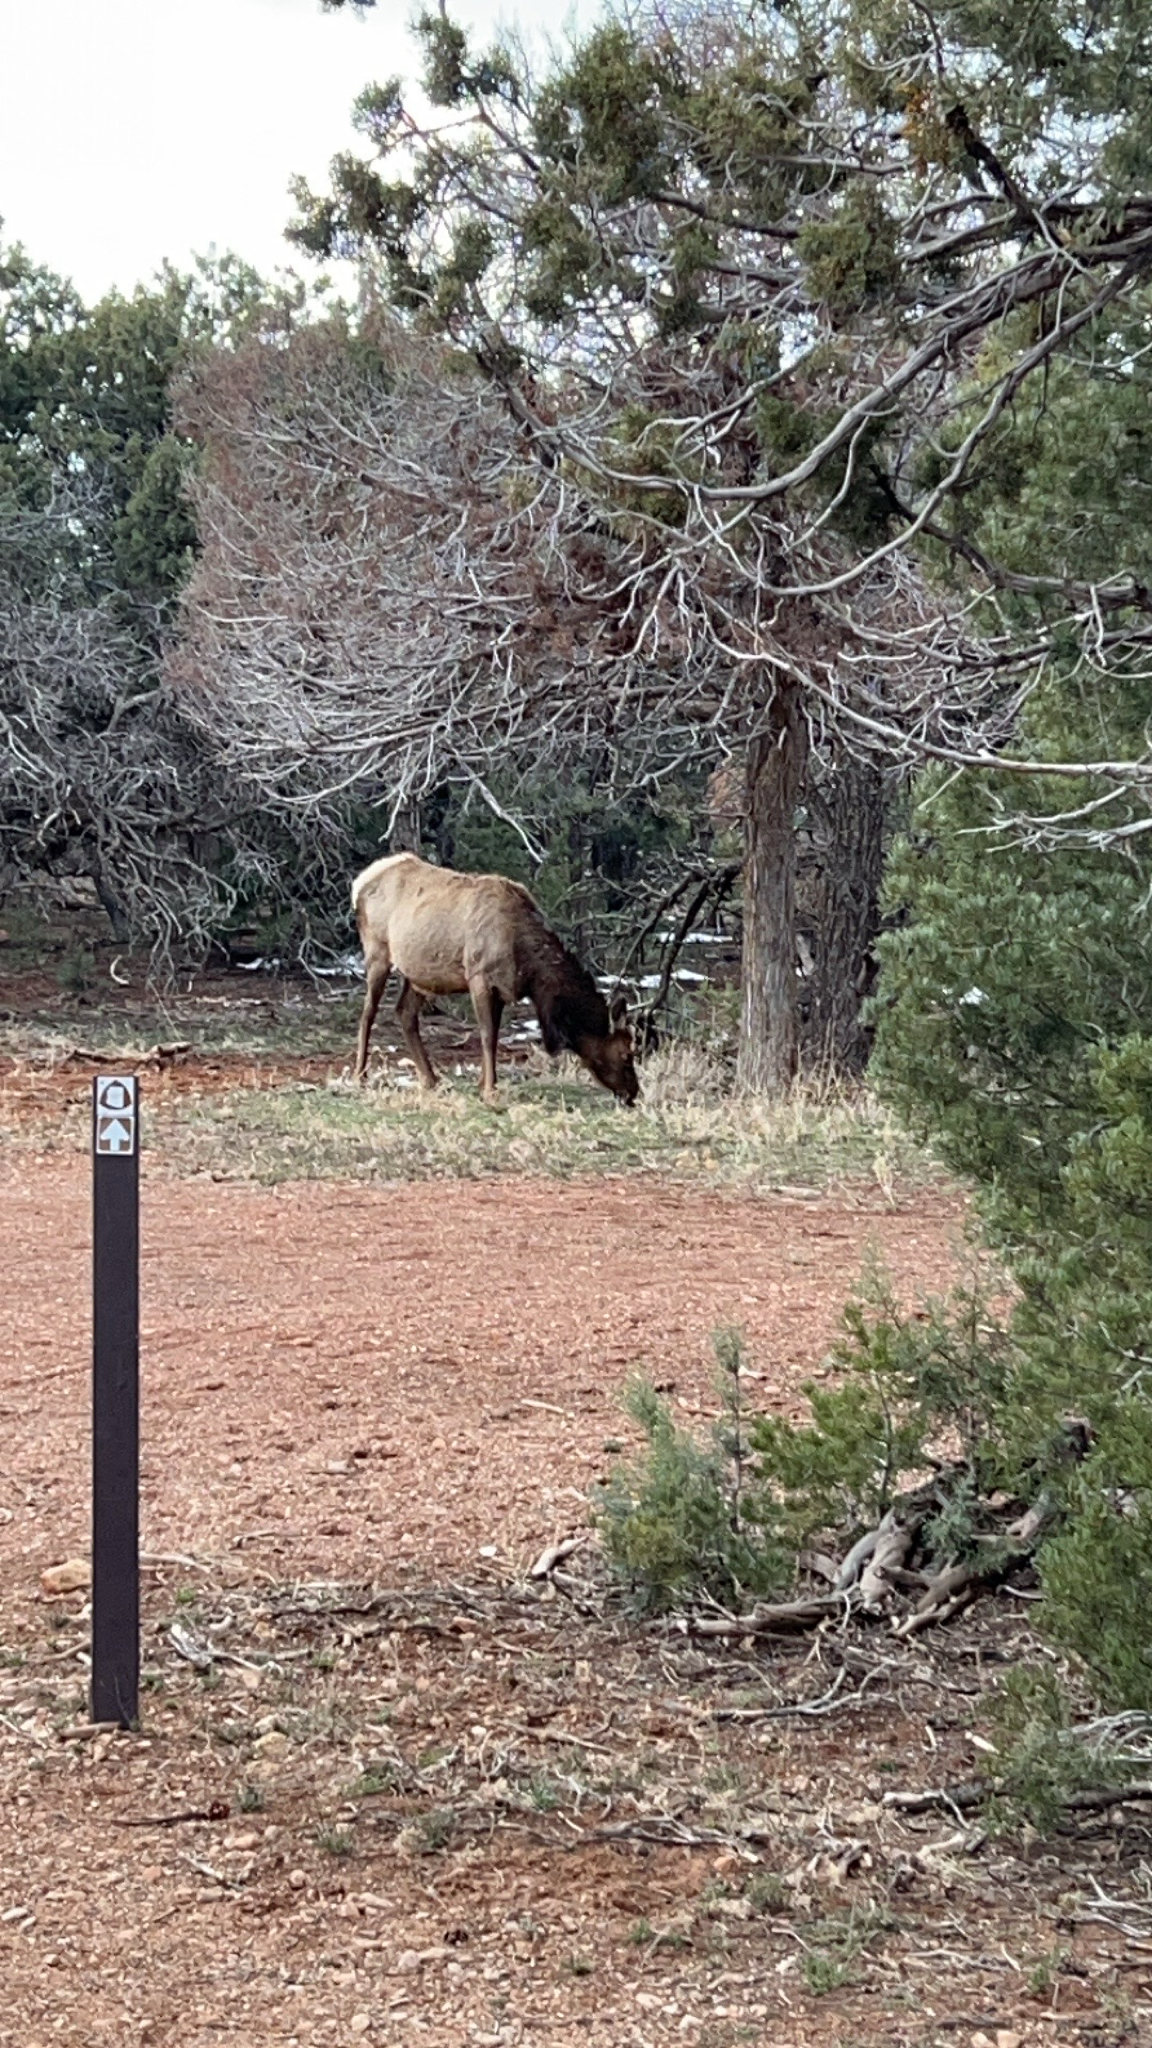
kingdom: Animalia
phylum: Chordata
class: Mammalia
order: Artiodactyla
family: Cervidae
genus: Cervus
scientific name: Cervus elaphus
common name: Red deer
